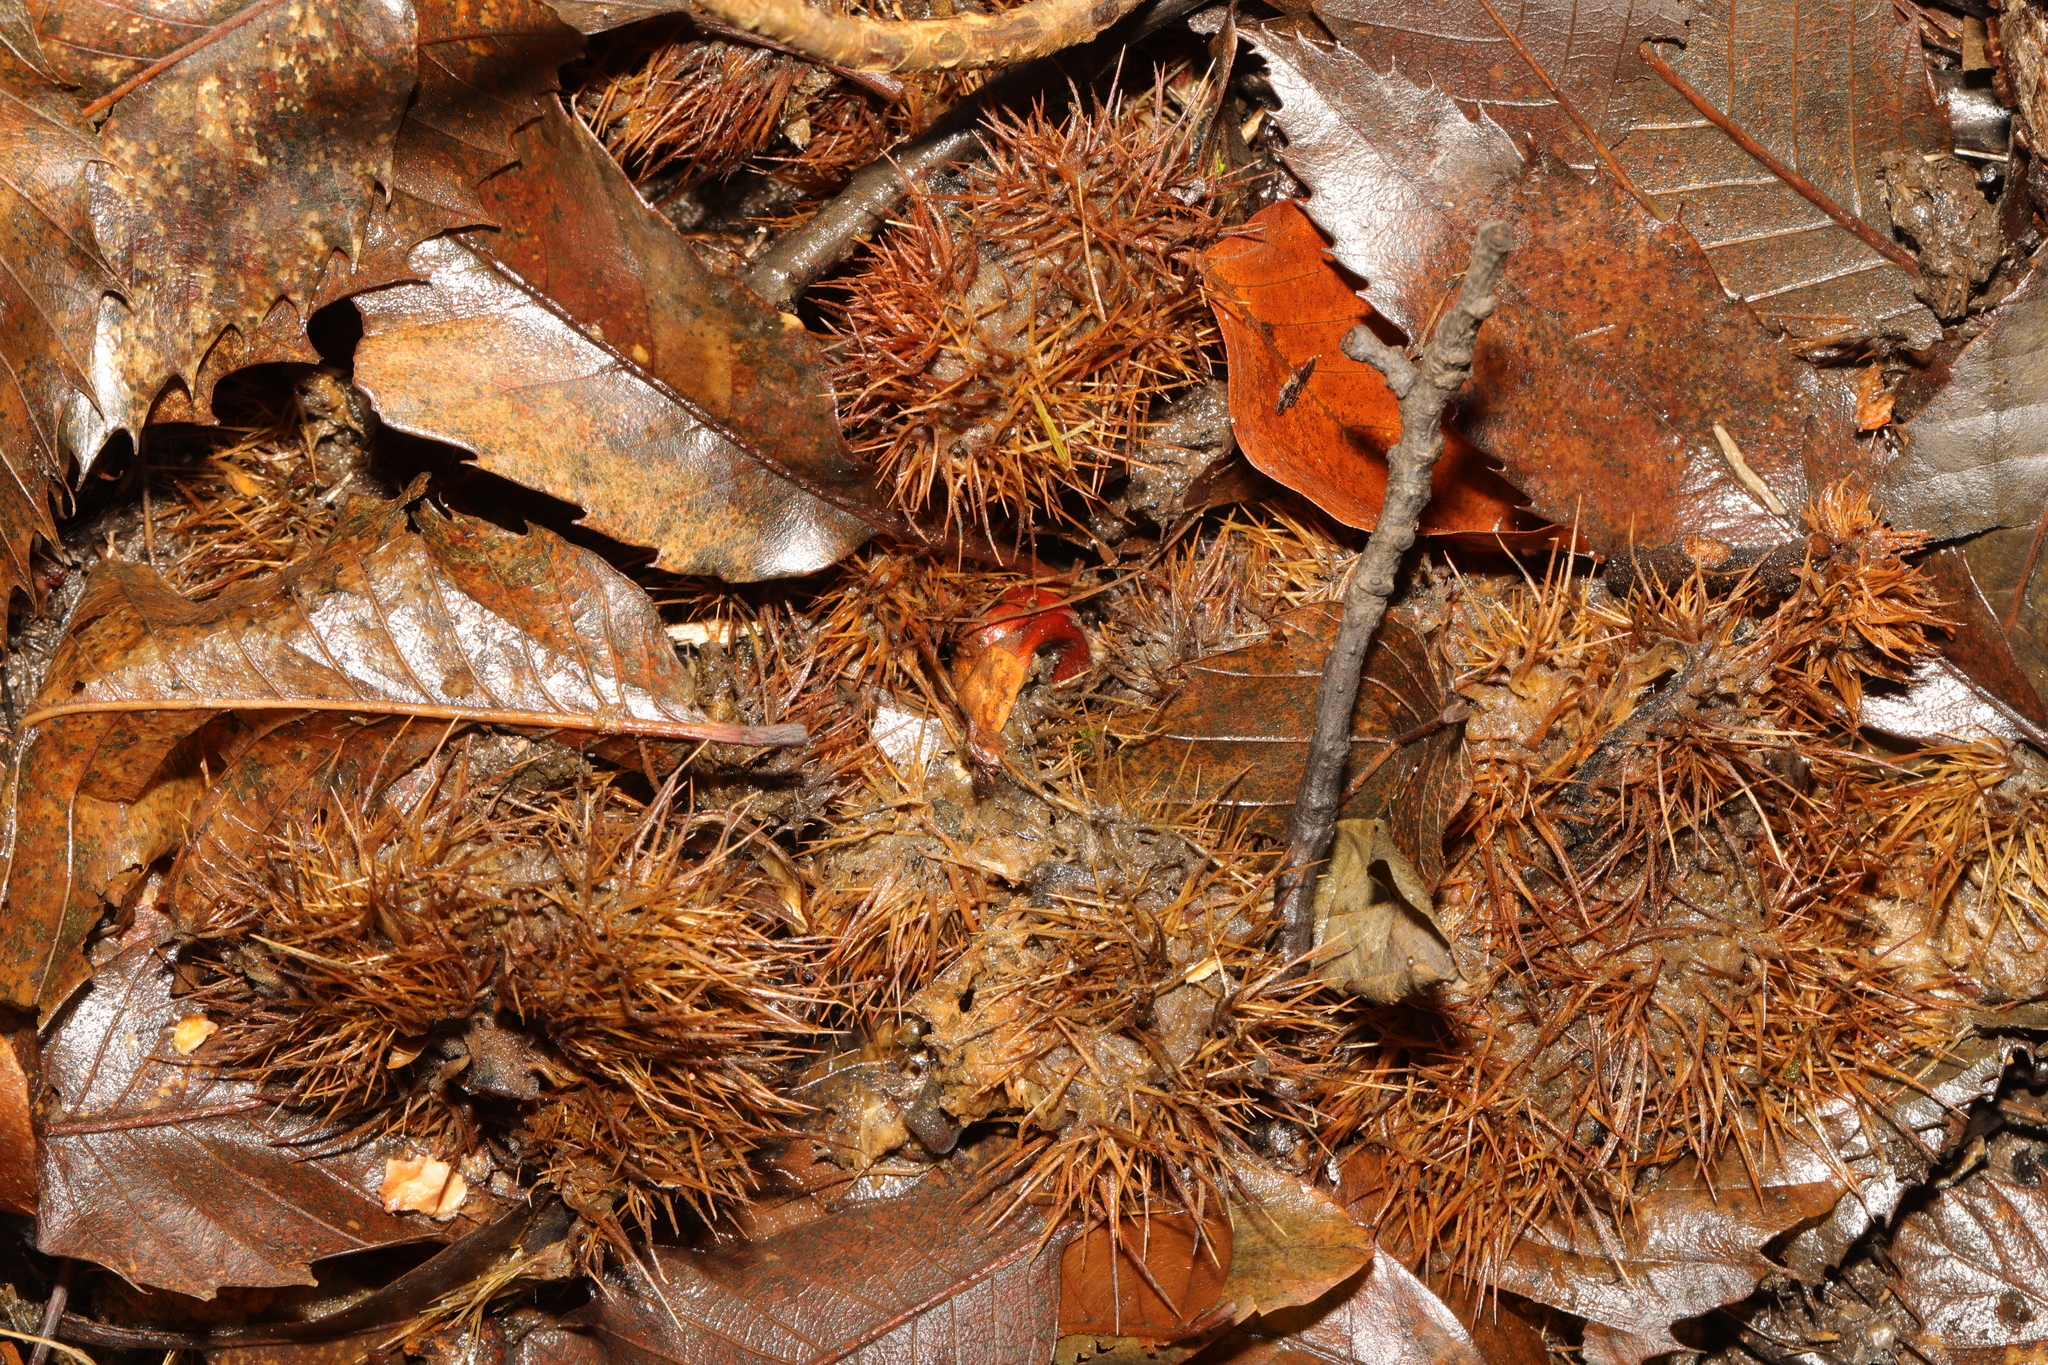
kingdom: Plantae
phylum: Tracheophyta
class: Magnoliopsida
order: Fagales
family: Fagaceae
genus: Castanea
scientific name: Castanea sativa
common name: Sweet chestnut
